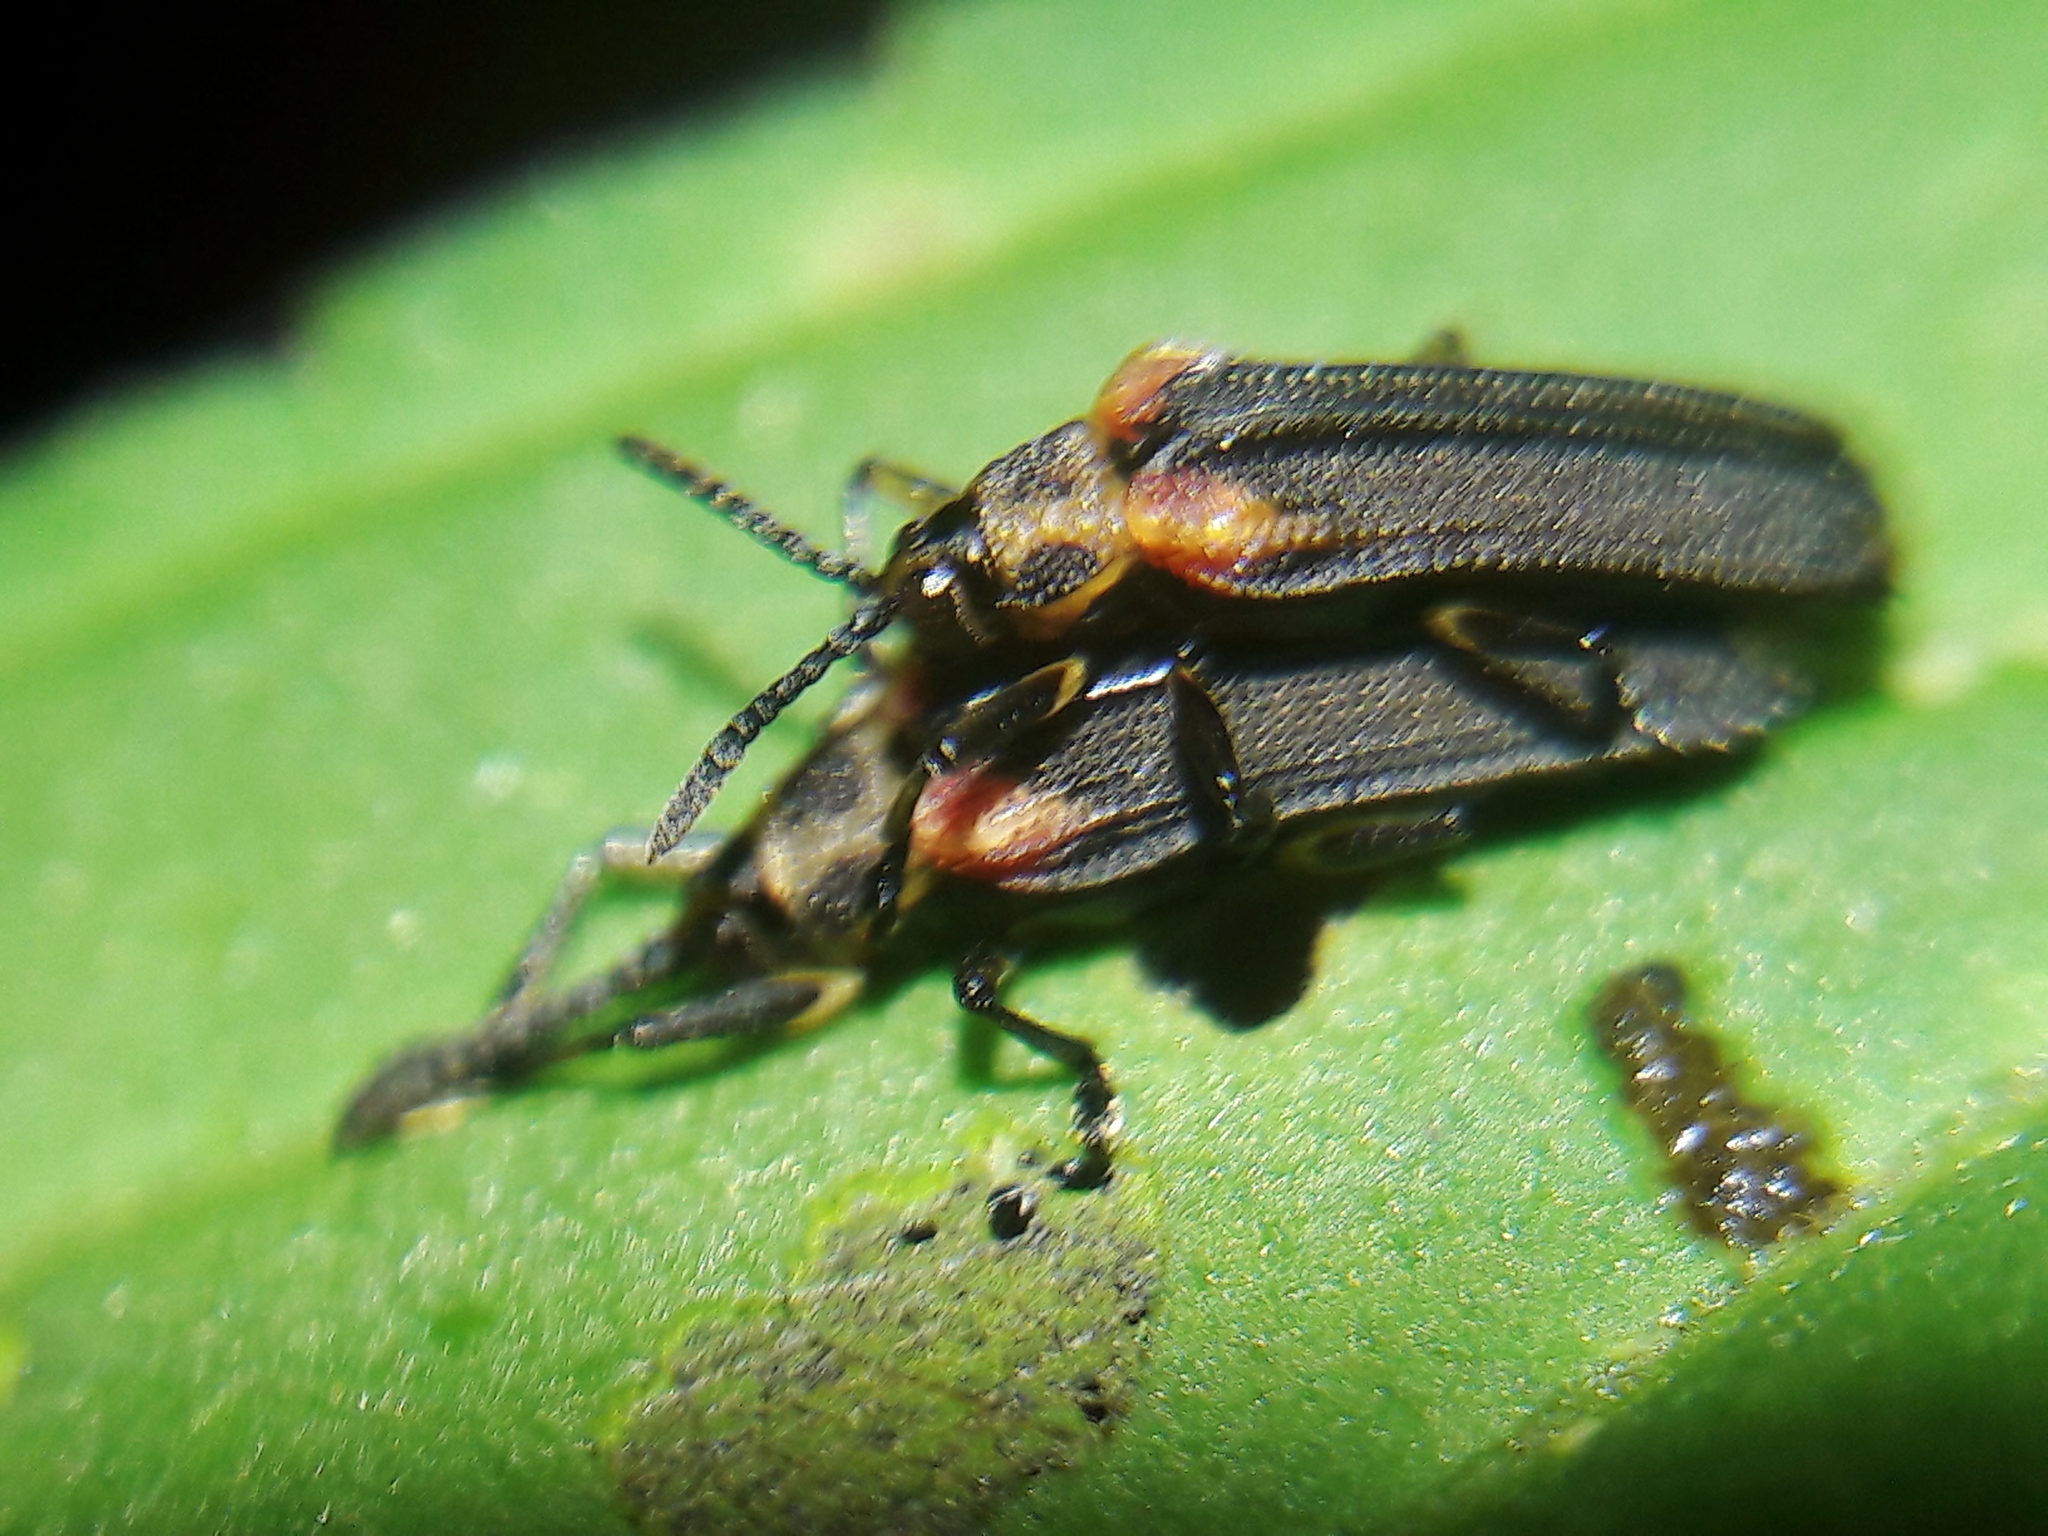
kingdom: Animalia
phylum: Arthropoda
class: Insecta
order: Coleoptera
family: Chrysomelidae
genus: Heterispa
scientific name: Heterispa vinula
